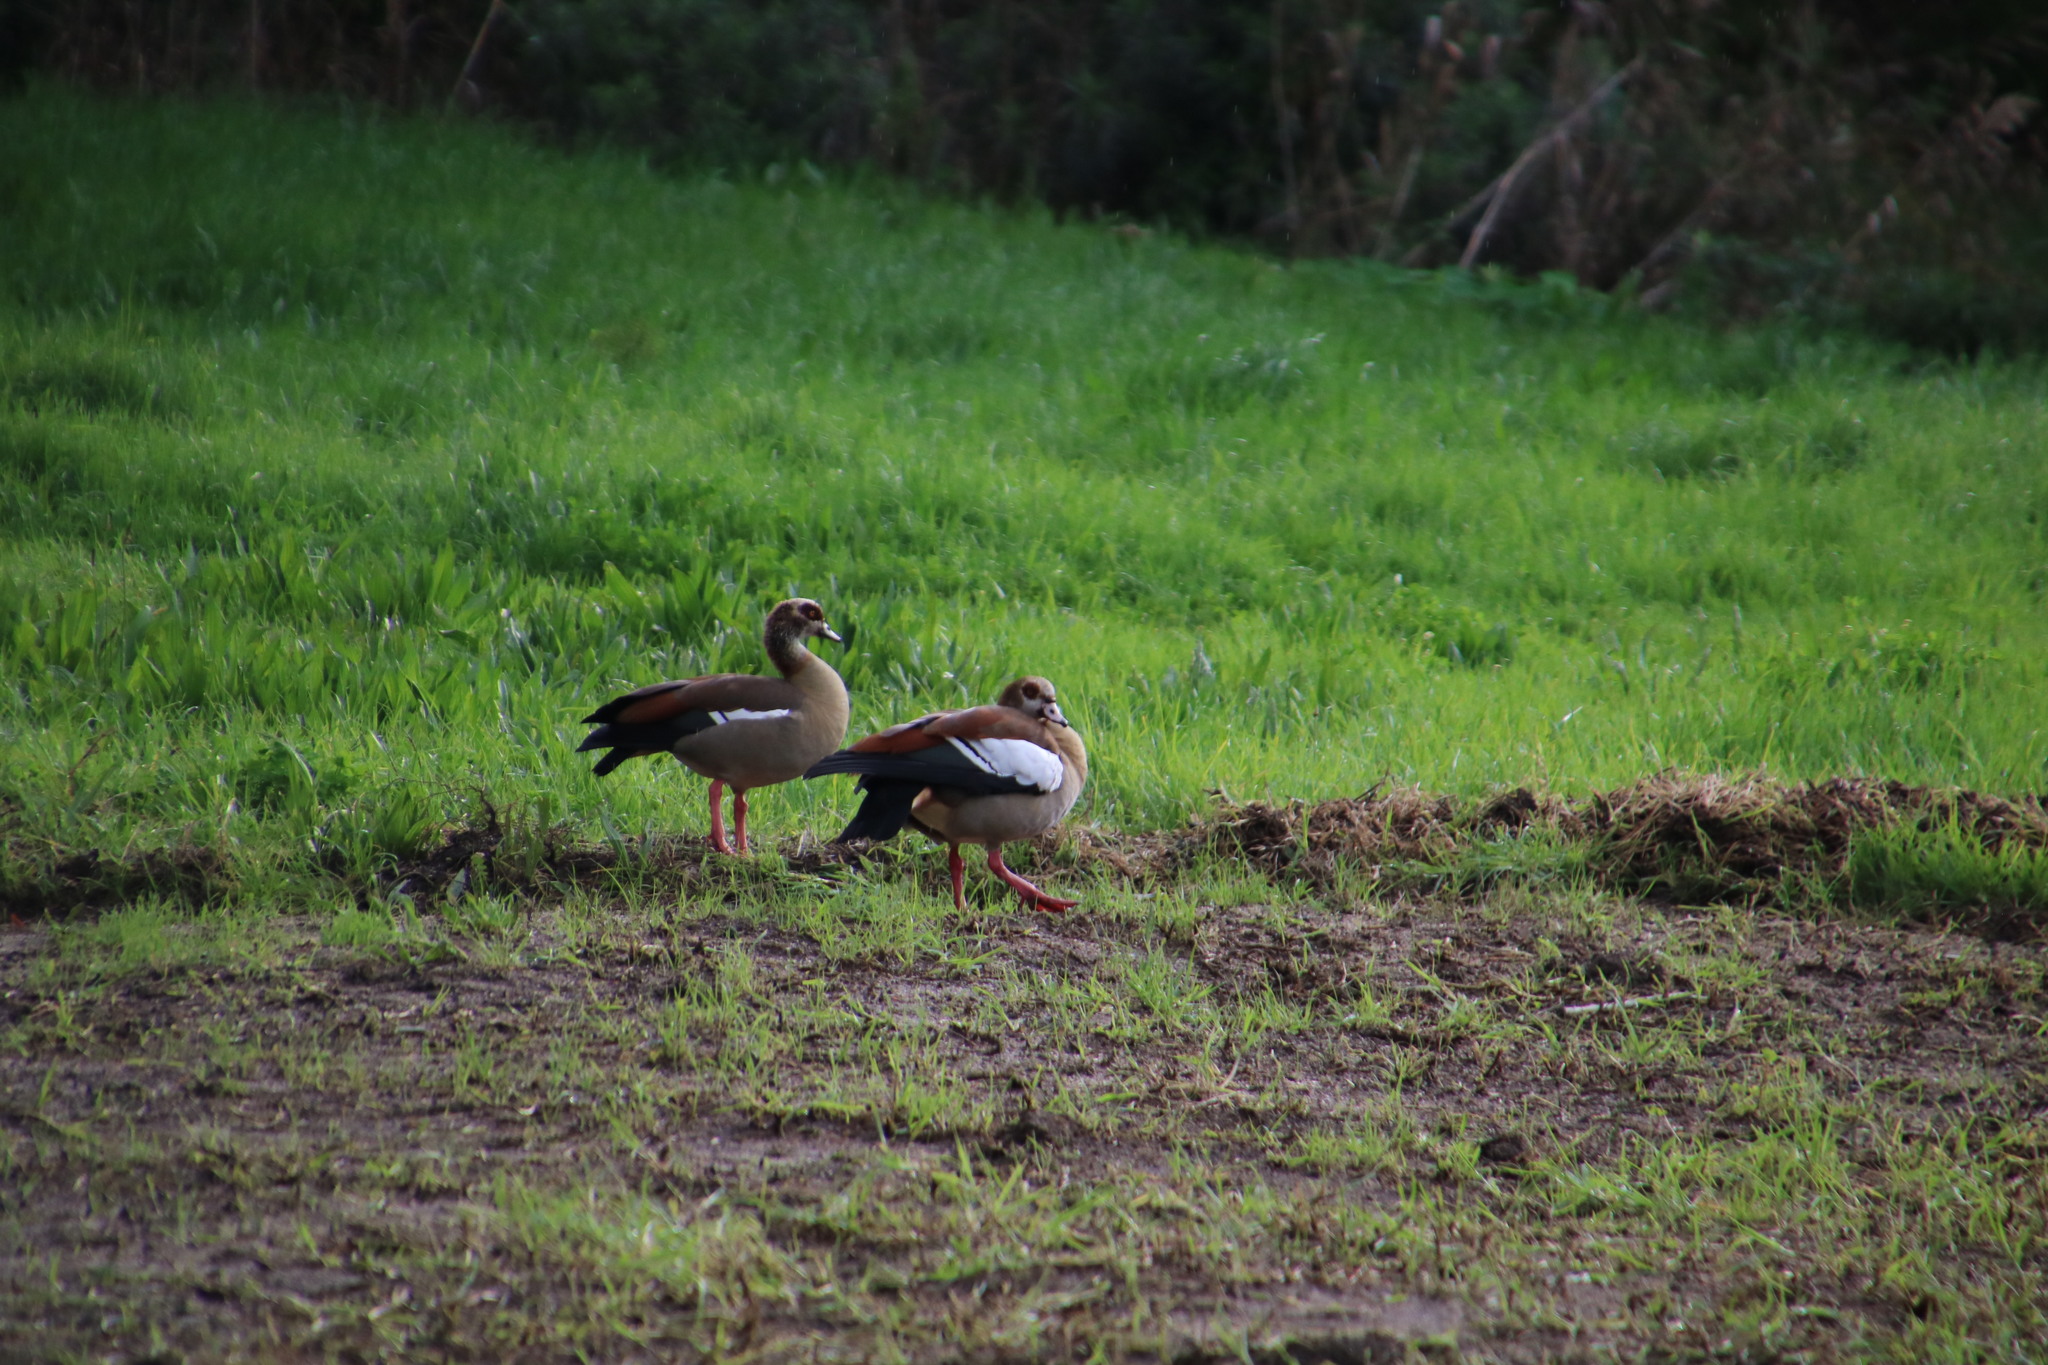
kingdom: Animalia
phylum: Chordata
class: Aves
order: Anseriformes
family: Anatidae
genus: Alopochen
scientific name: Alopochen aegyptiaca
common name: Egyptian goose
